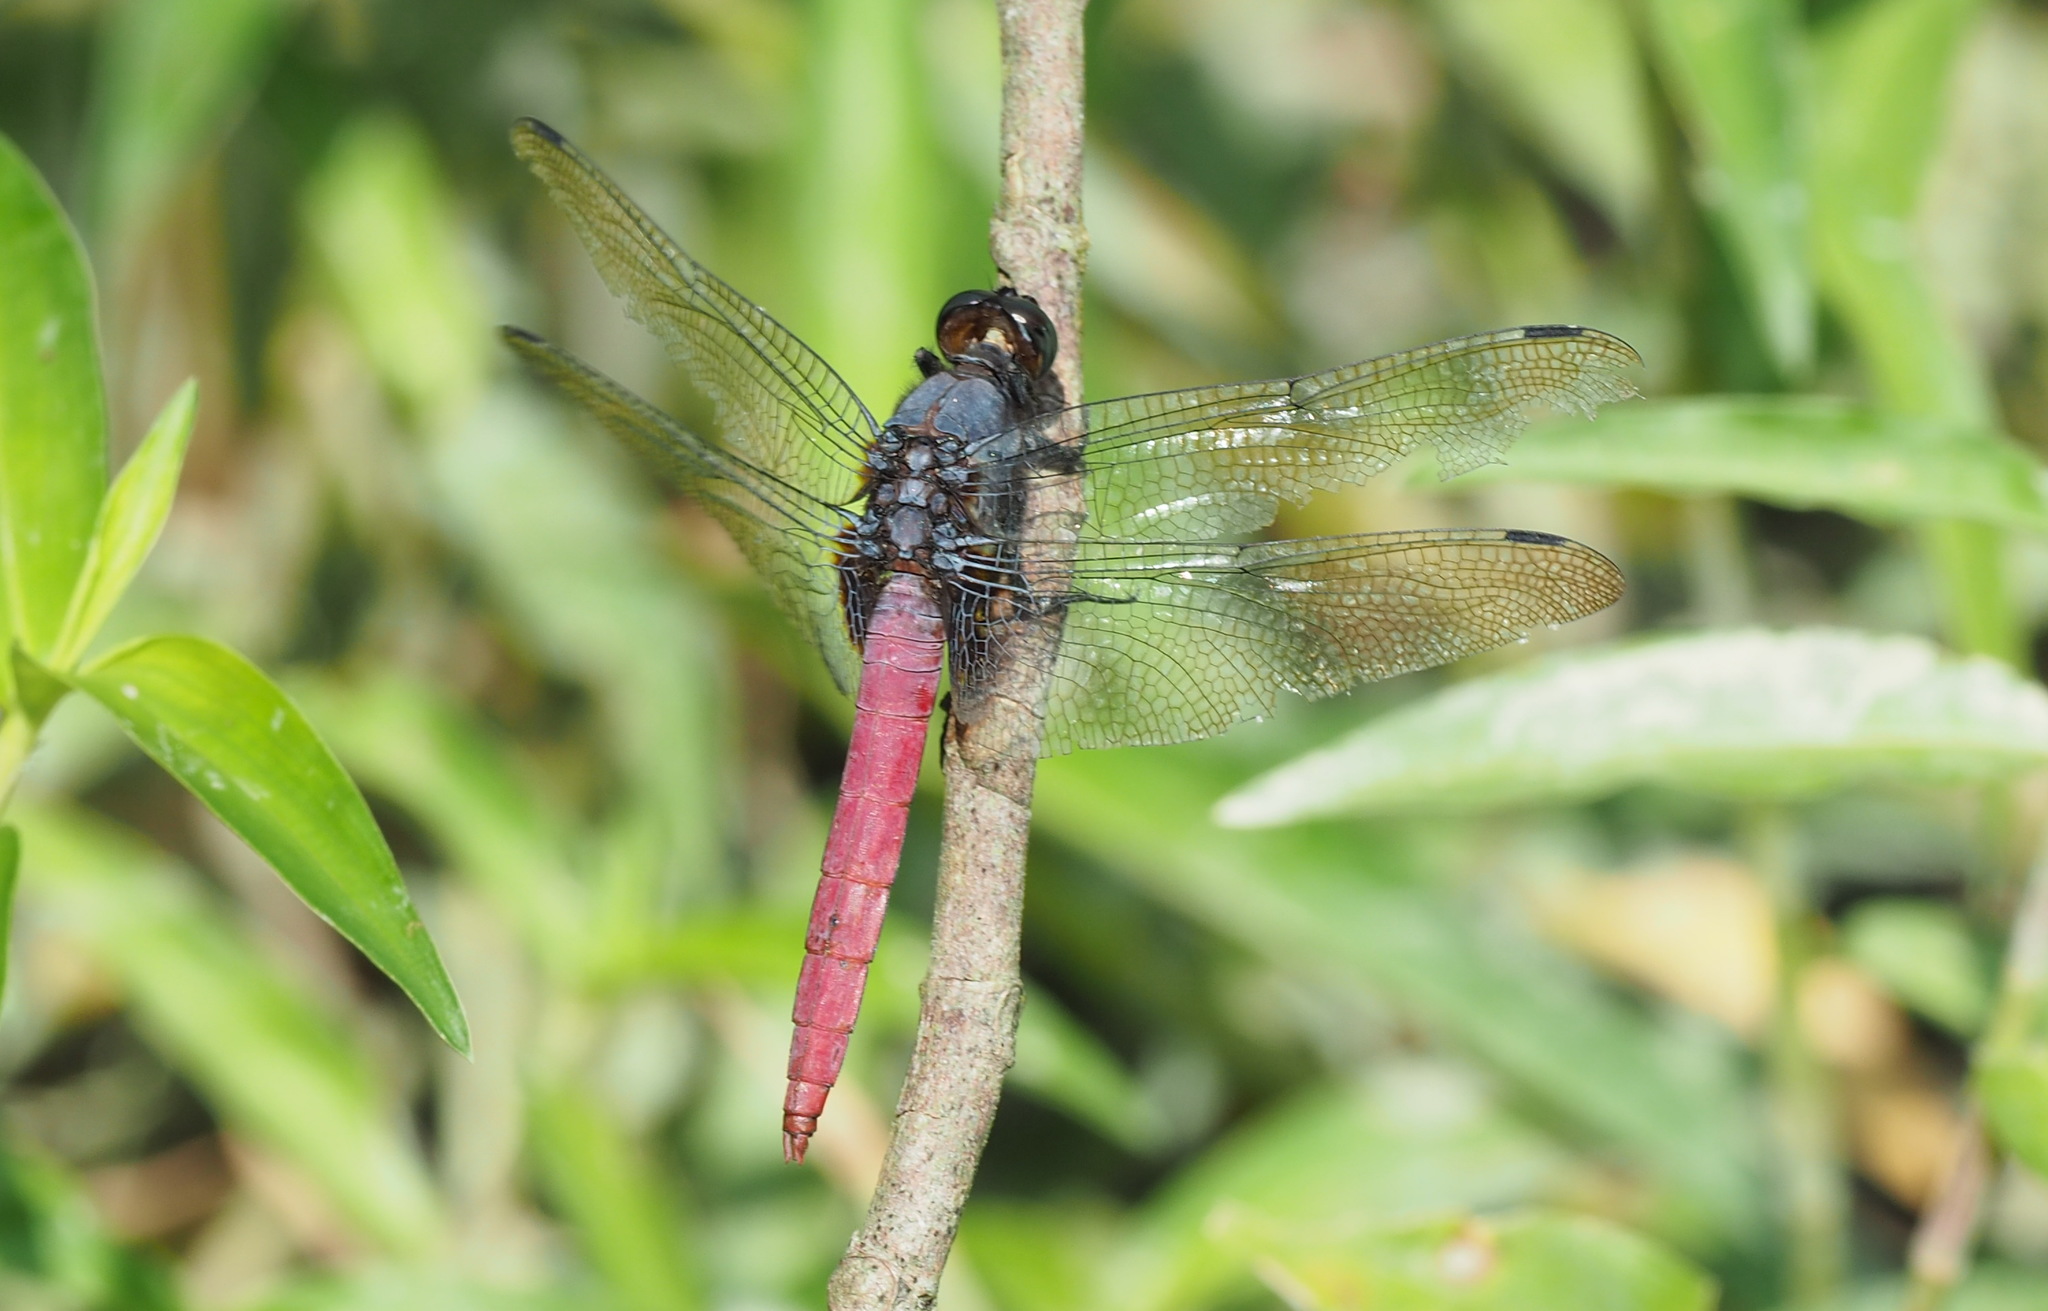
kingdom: Animalia
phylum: Arthropoda
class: Insecta
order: Odonata
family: Libellulidae
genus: Orthetrum
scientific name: Orthetrum pruinosum
